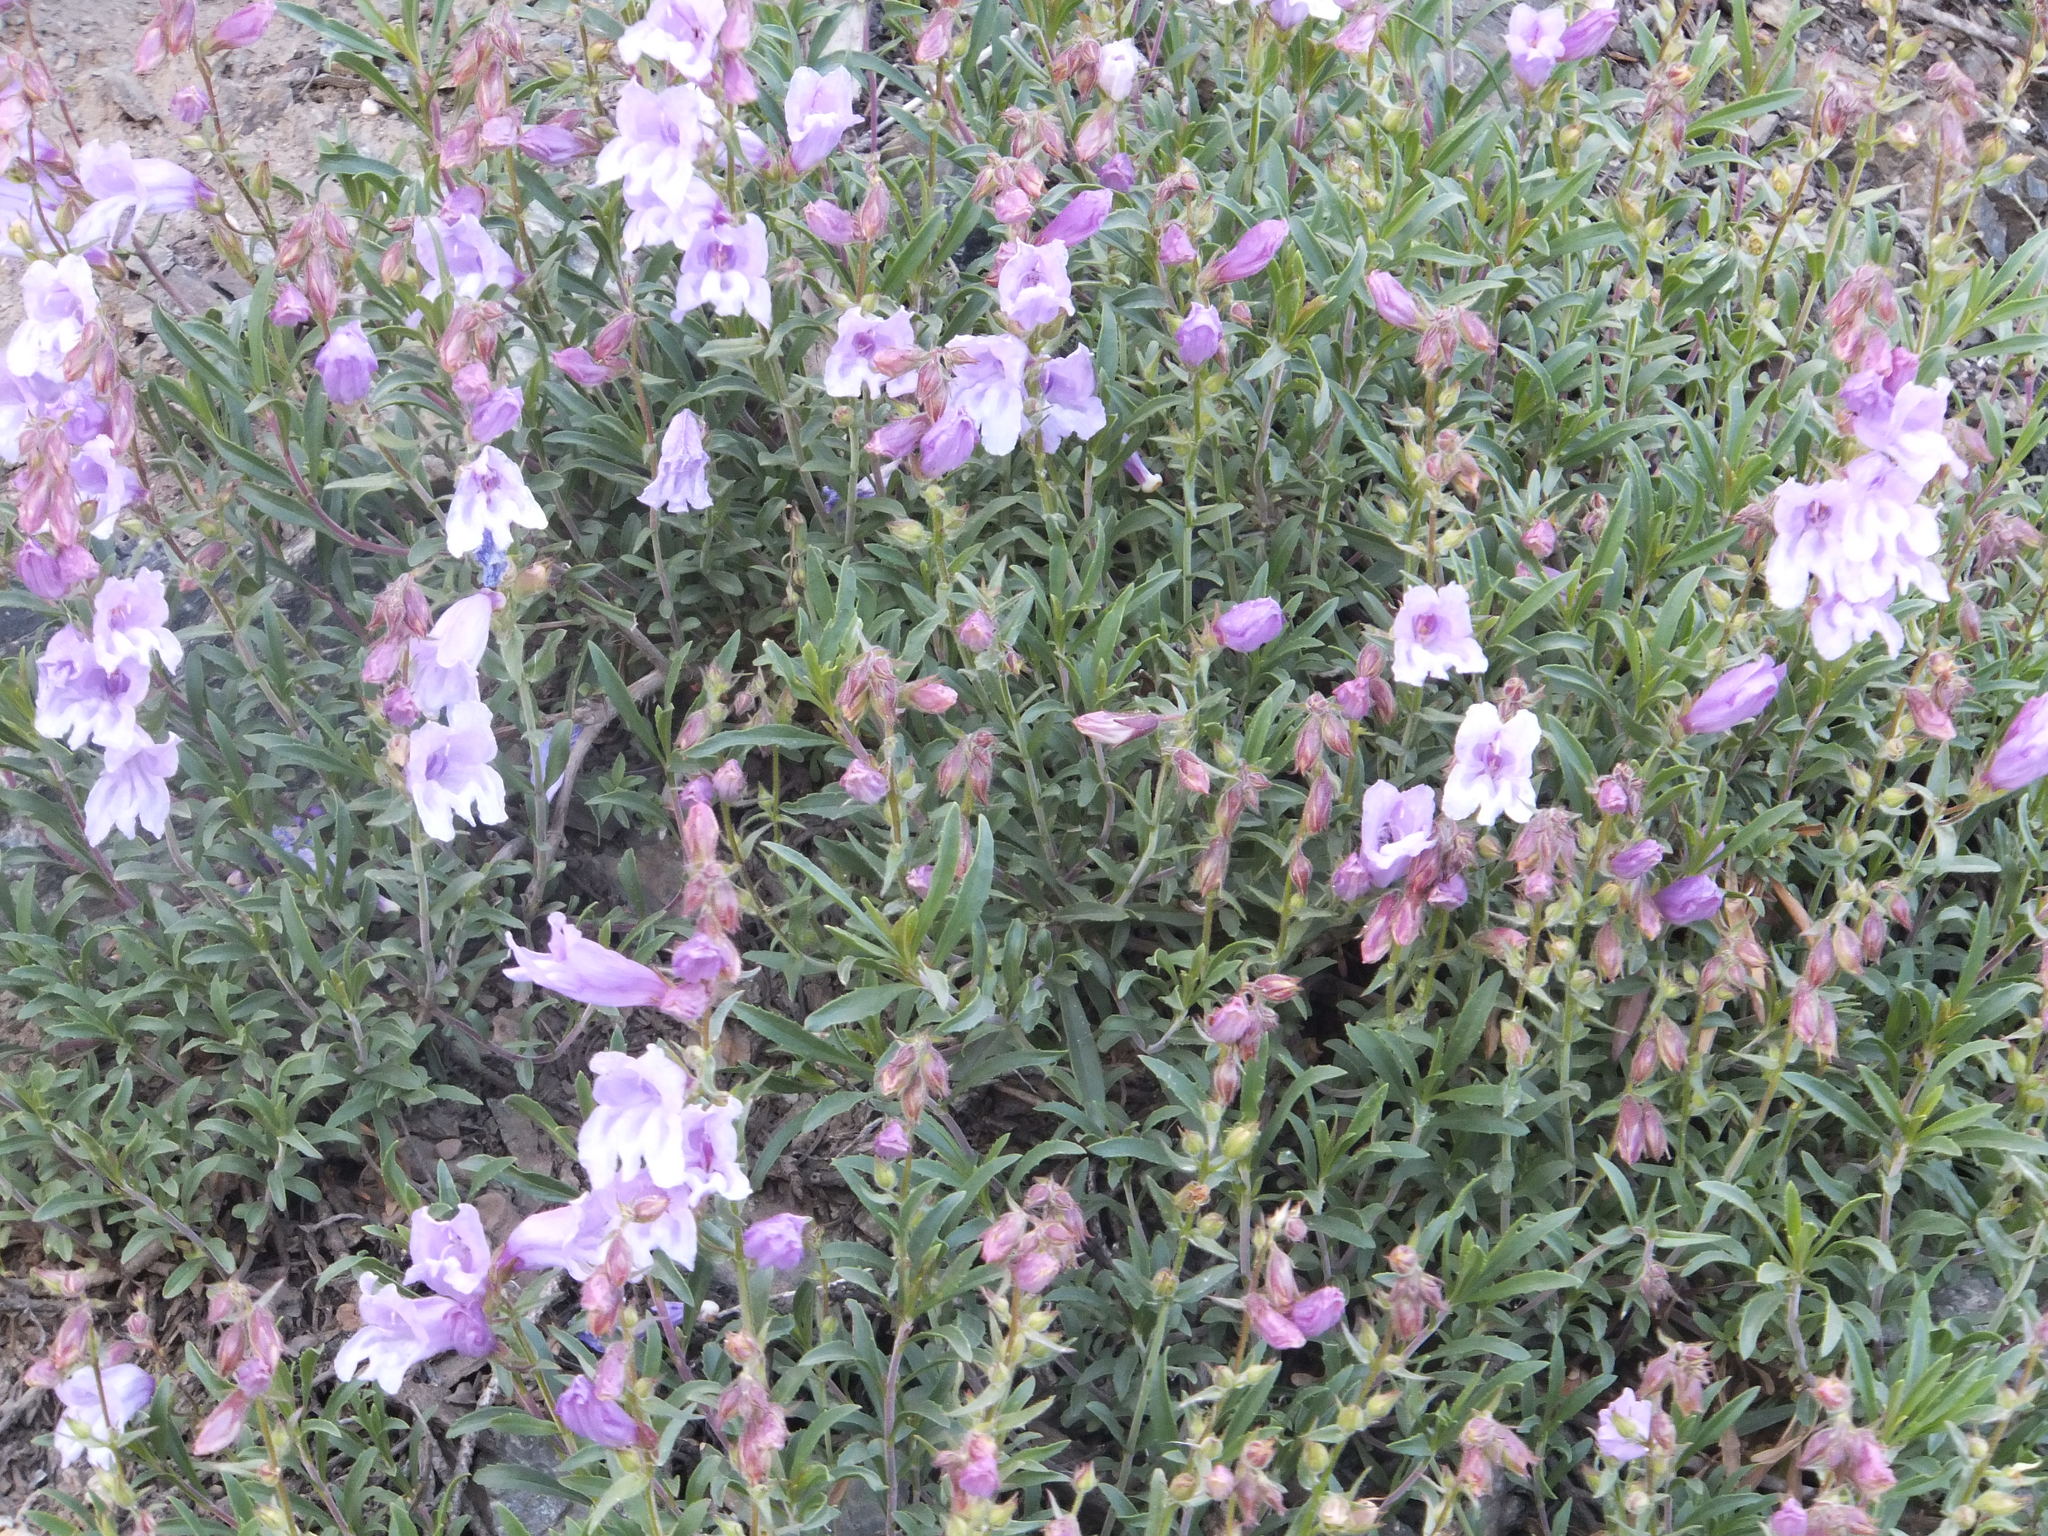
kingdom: Plantae
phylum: Tracheophyta
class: Magnoliopsida
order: Lamiales
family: Plantaginaceae
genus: Penstemon
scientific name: Penstemon fruticosus
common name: Bush penstemon
